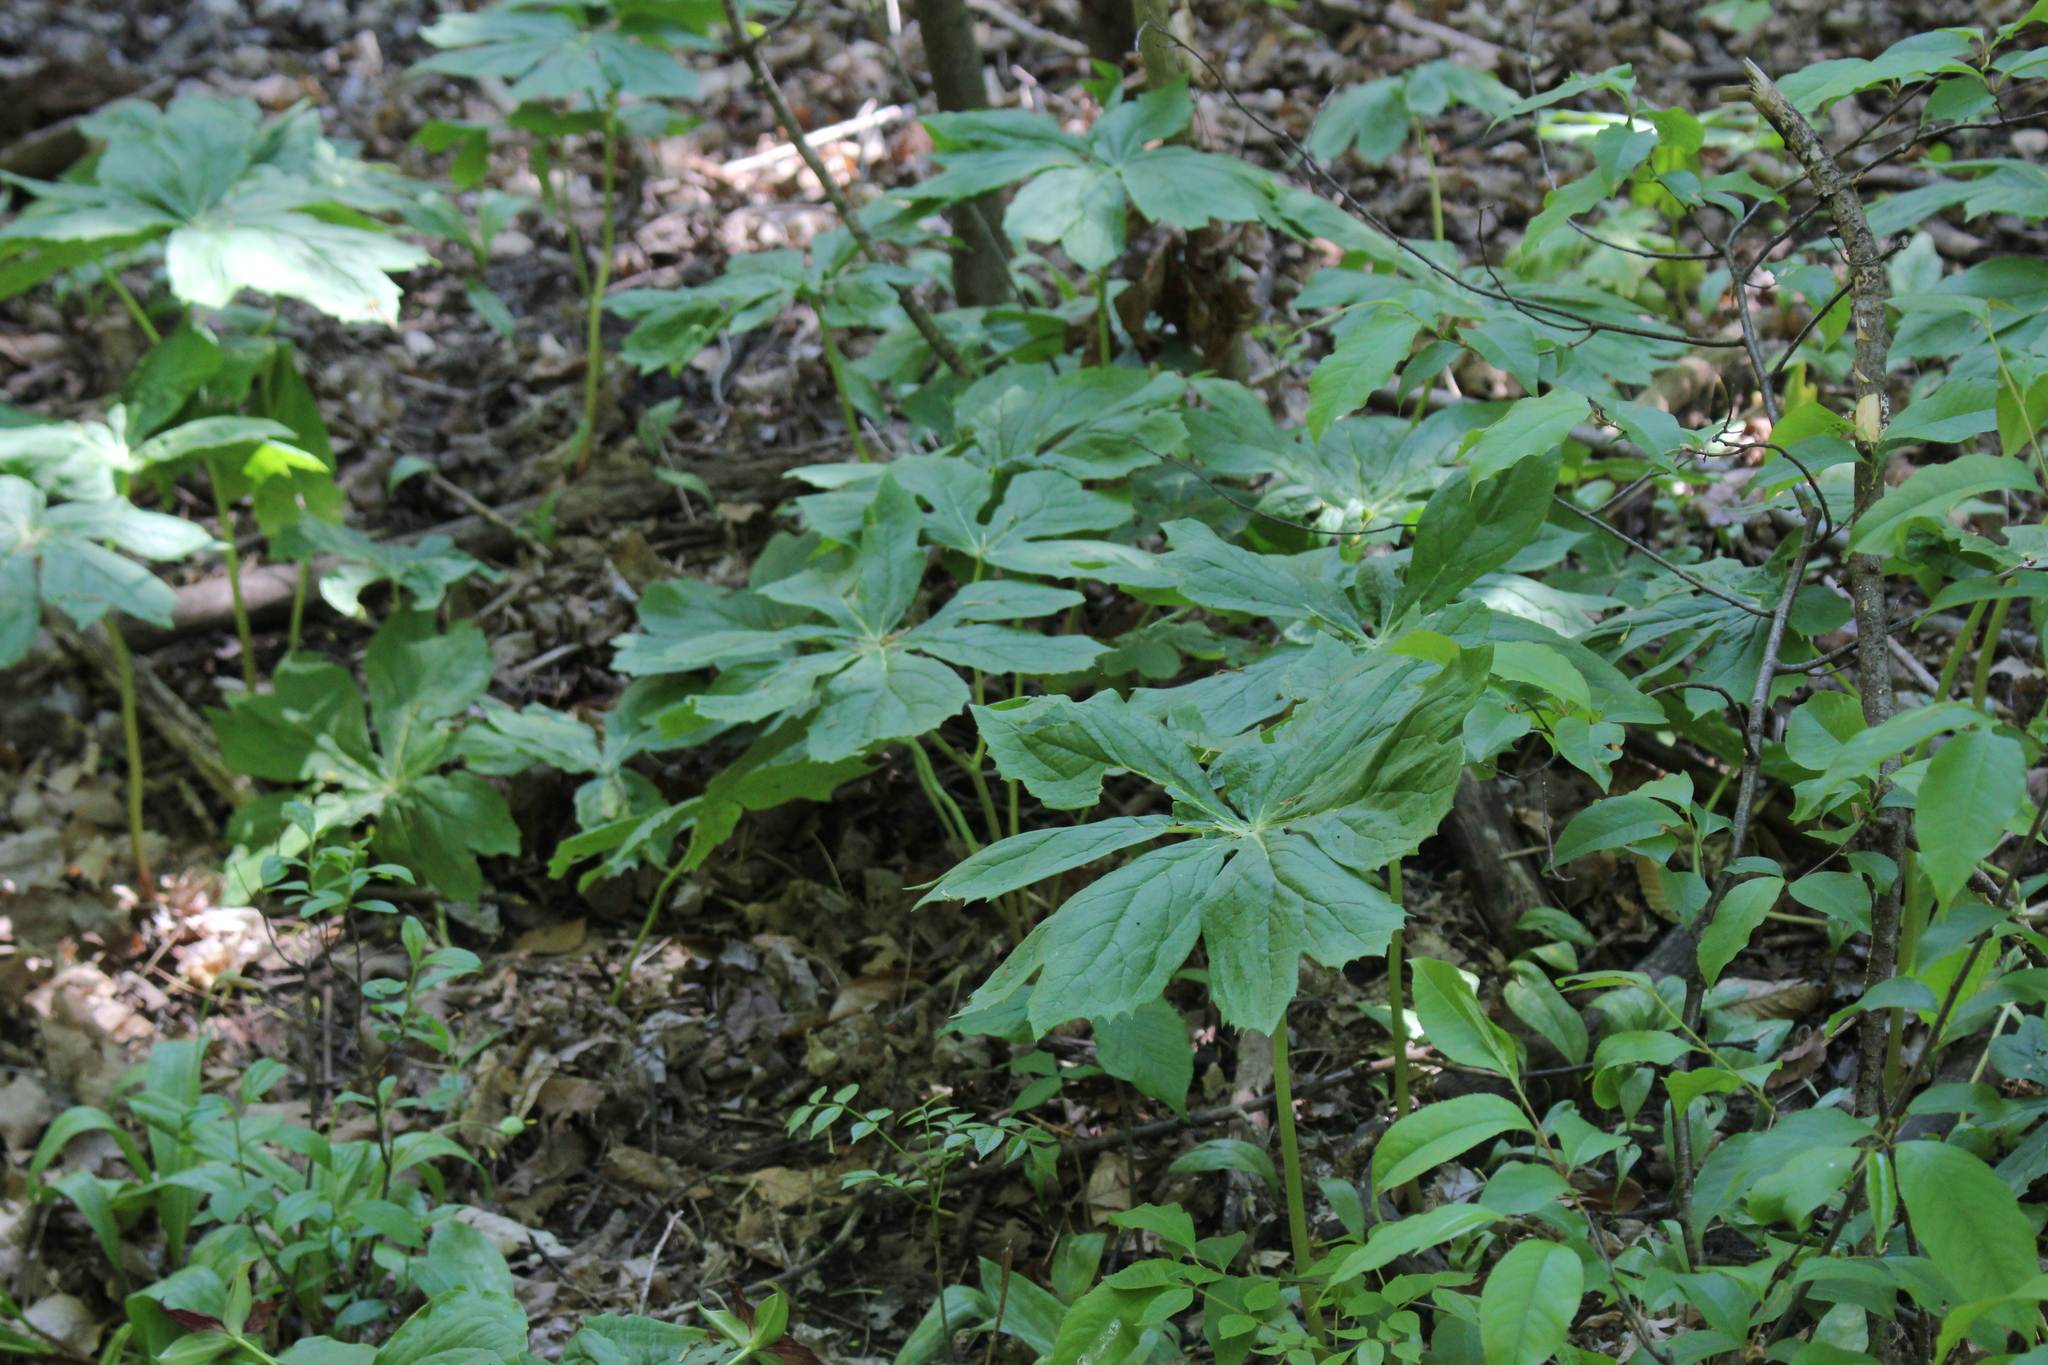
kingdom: Plantae
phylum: Tracheophyta
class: Magnoliopsida
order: Ranunculales
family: Berberidaceae
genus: Podophyllum
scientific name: Podophyllum peltatum
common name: Wild mandrake
